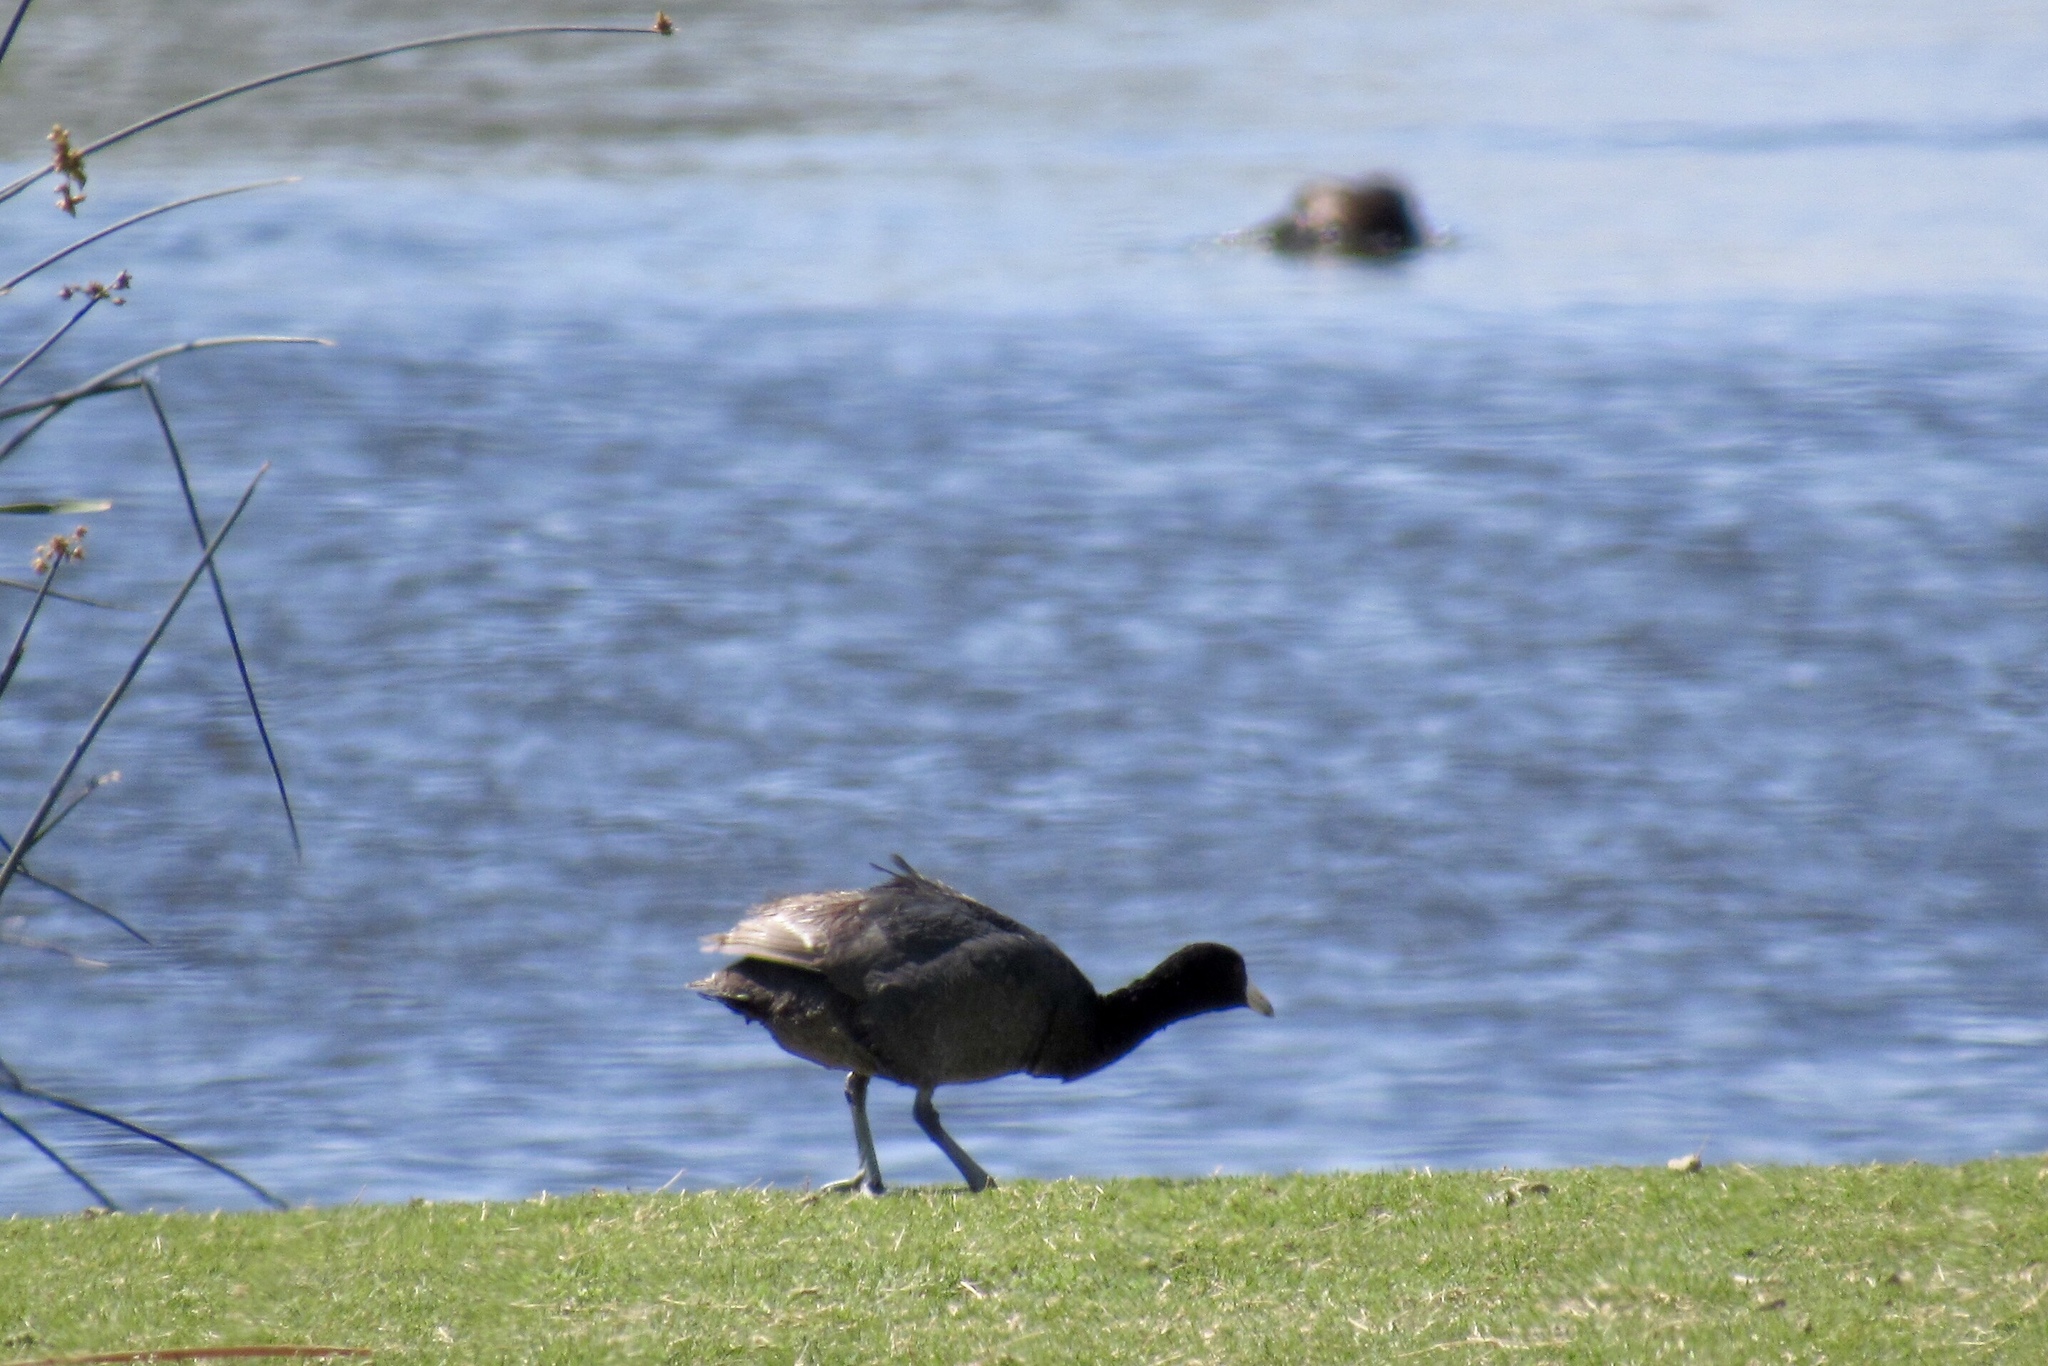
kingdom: Animalia
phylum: Chordata
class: Aves
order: Gruiformes
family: Rallidae
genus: Fulica
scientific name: Fulica americana
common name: American coot
